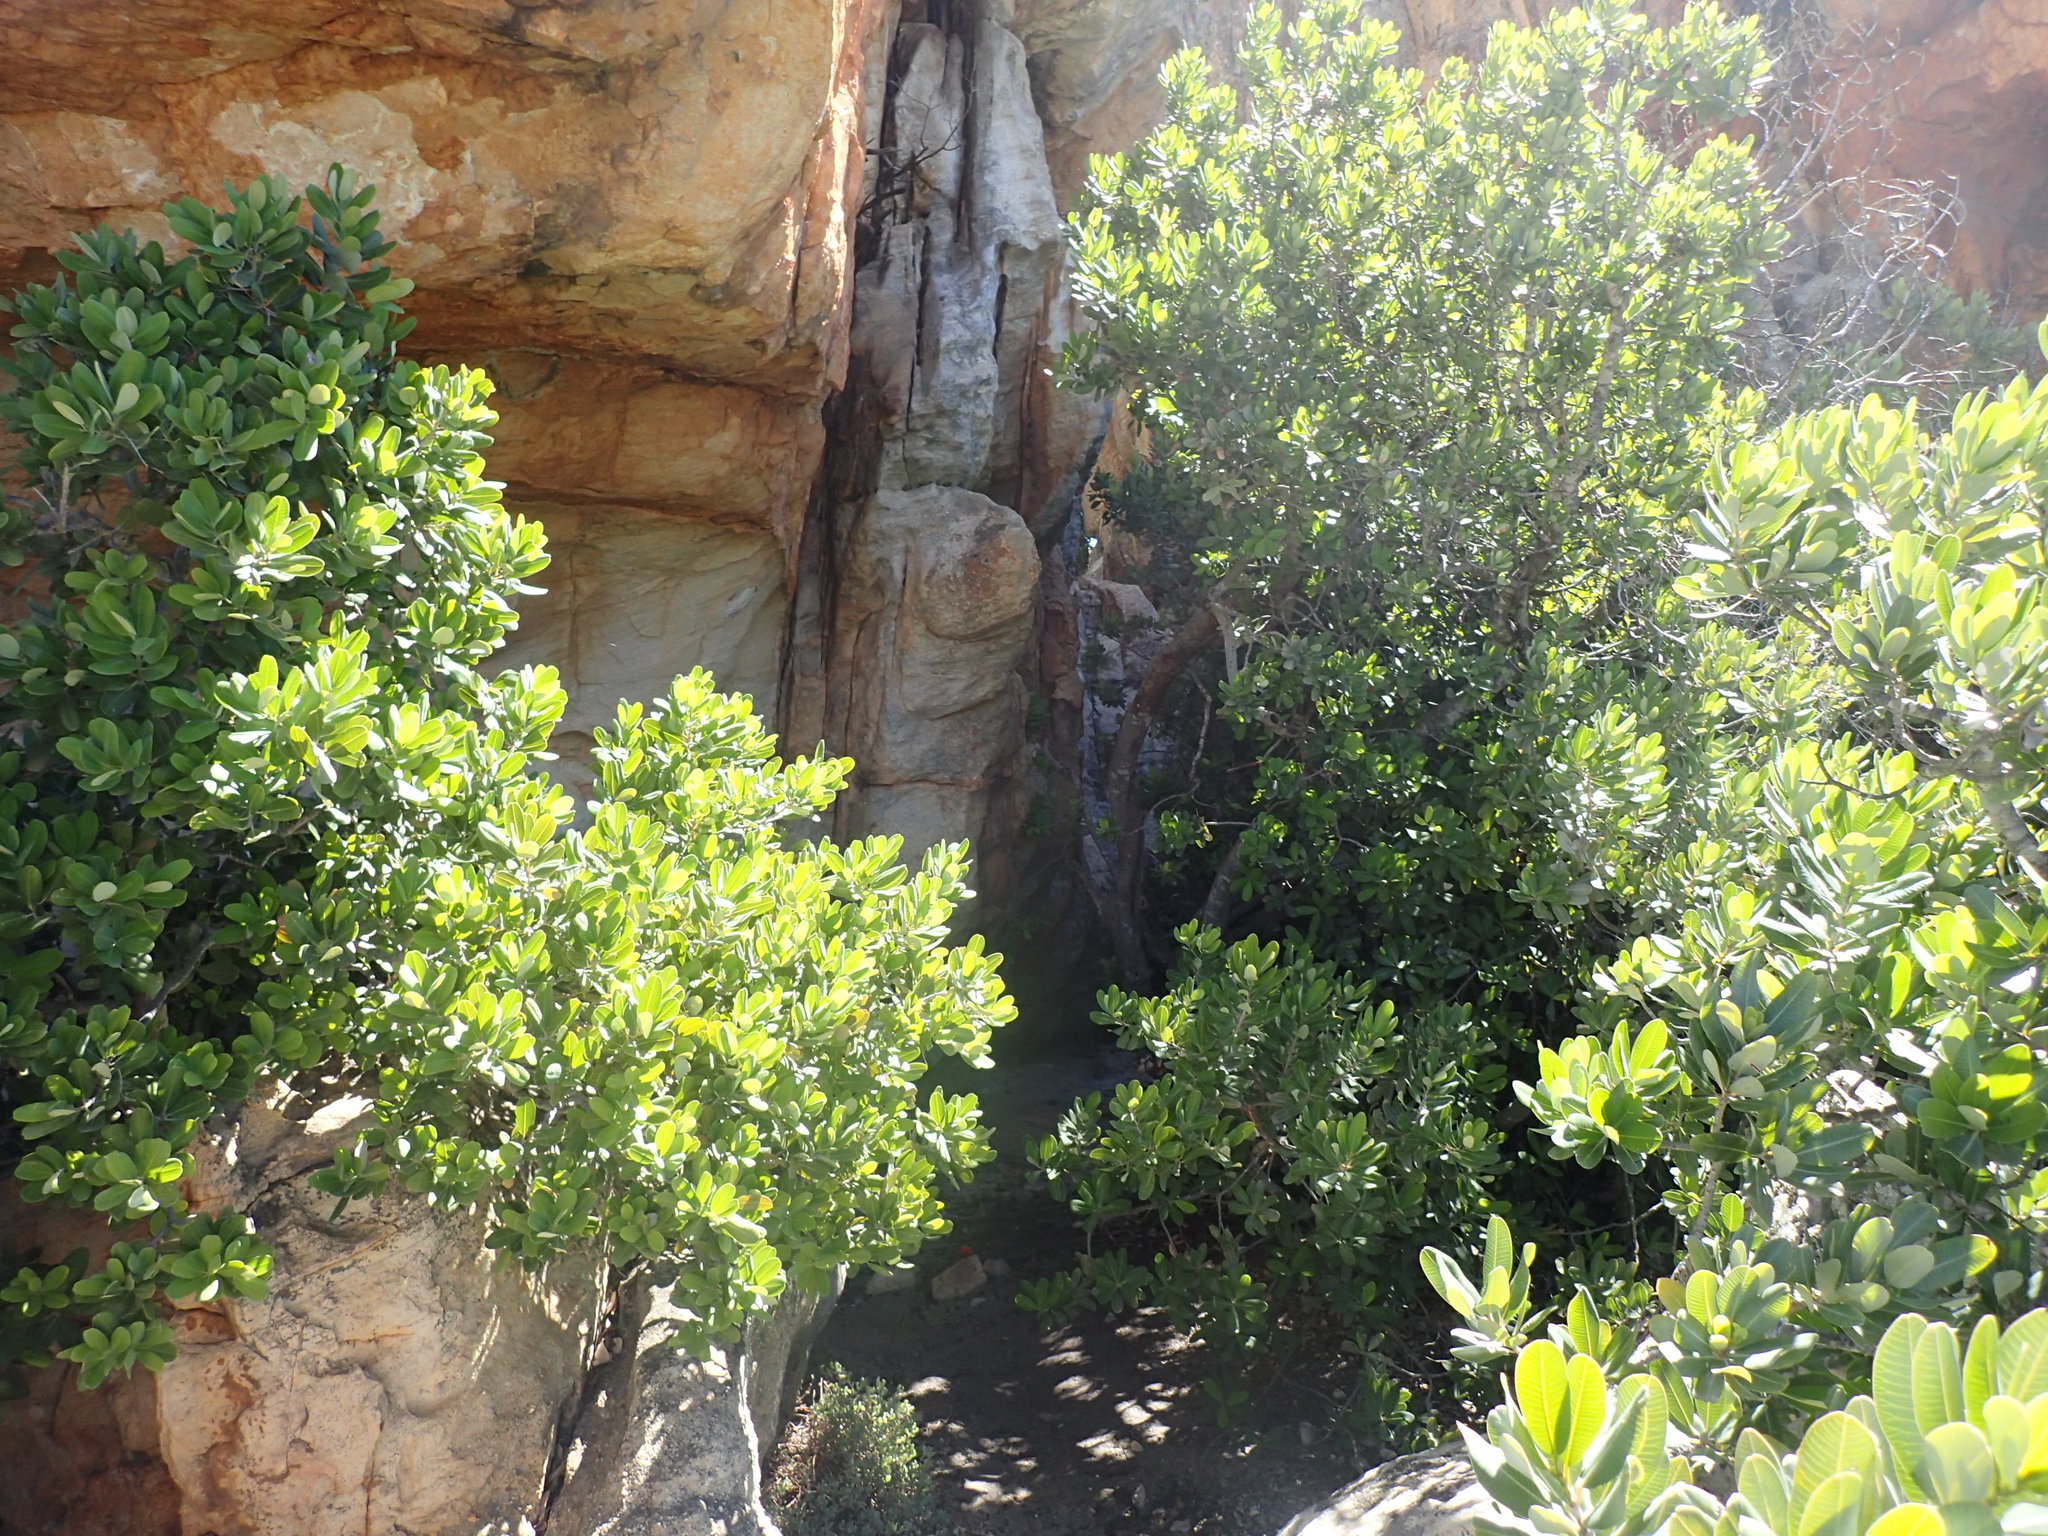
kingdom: Plantae
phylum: Tracheophyta
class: Magnoliopsida
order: Sapindales
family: Anacardiaceae
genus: Heeria
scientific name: Heeria argentea
